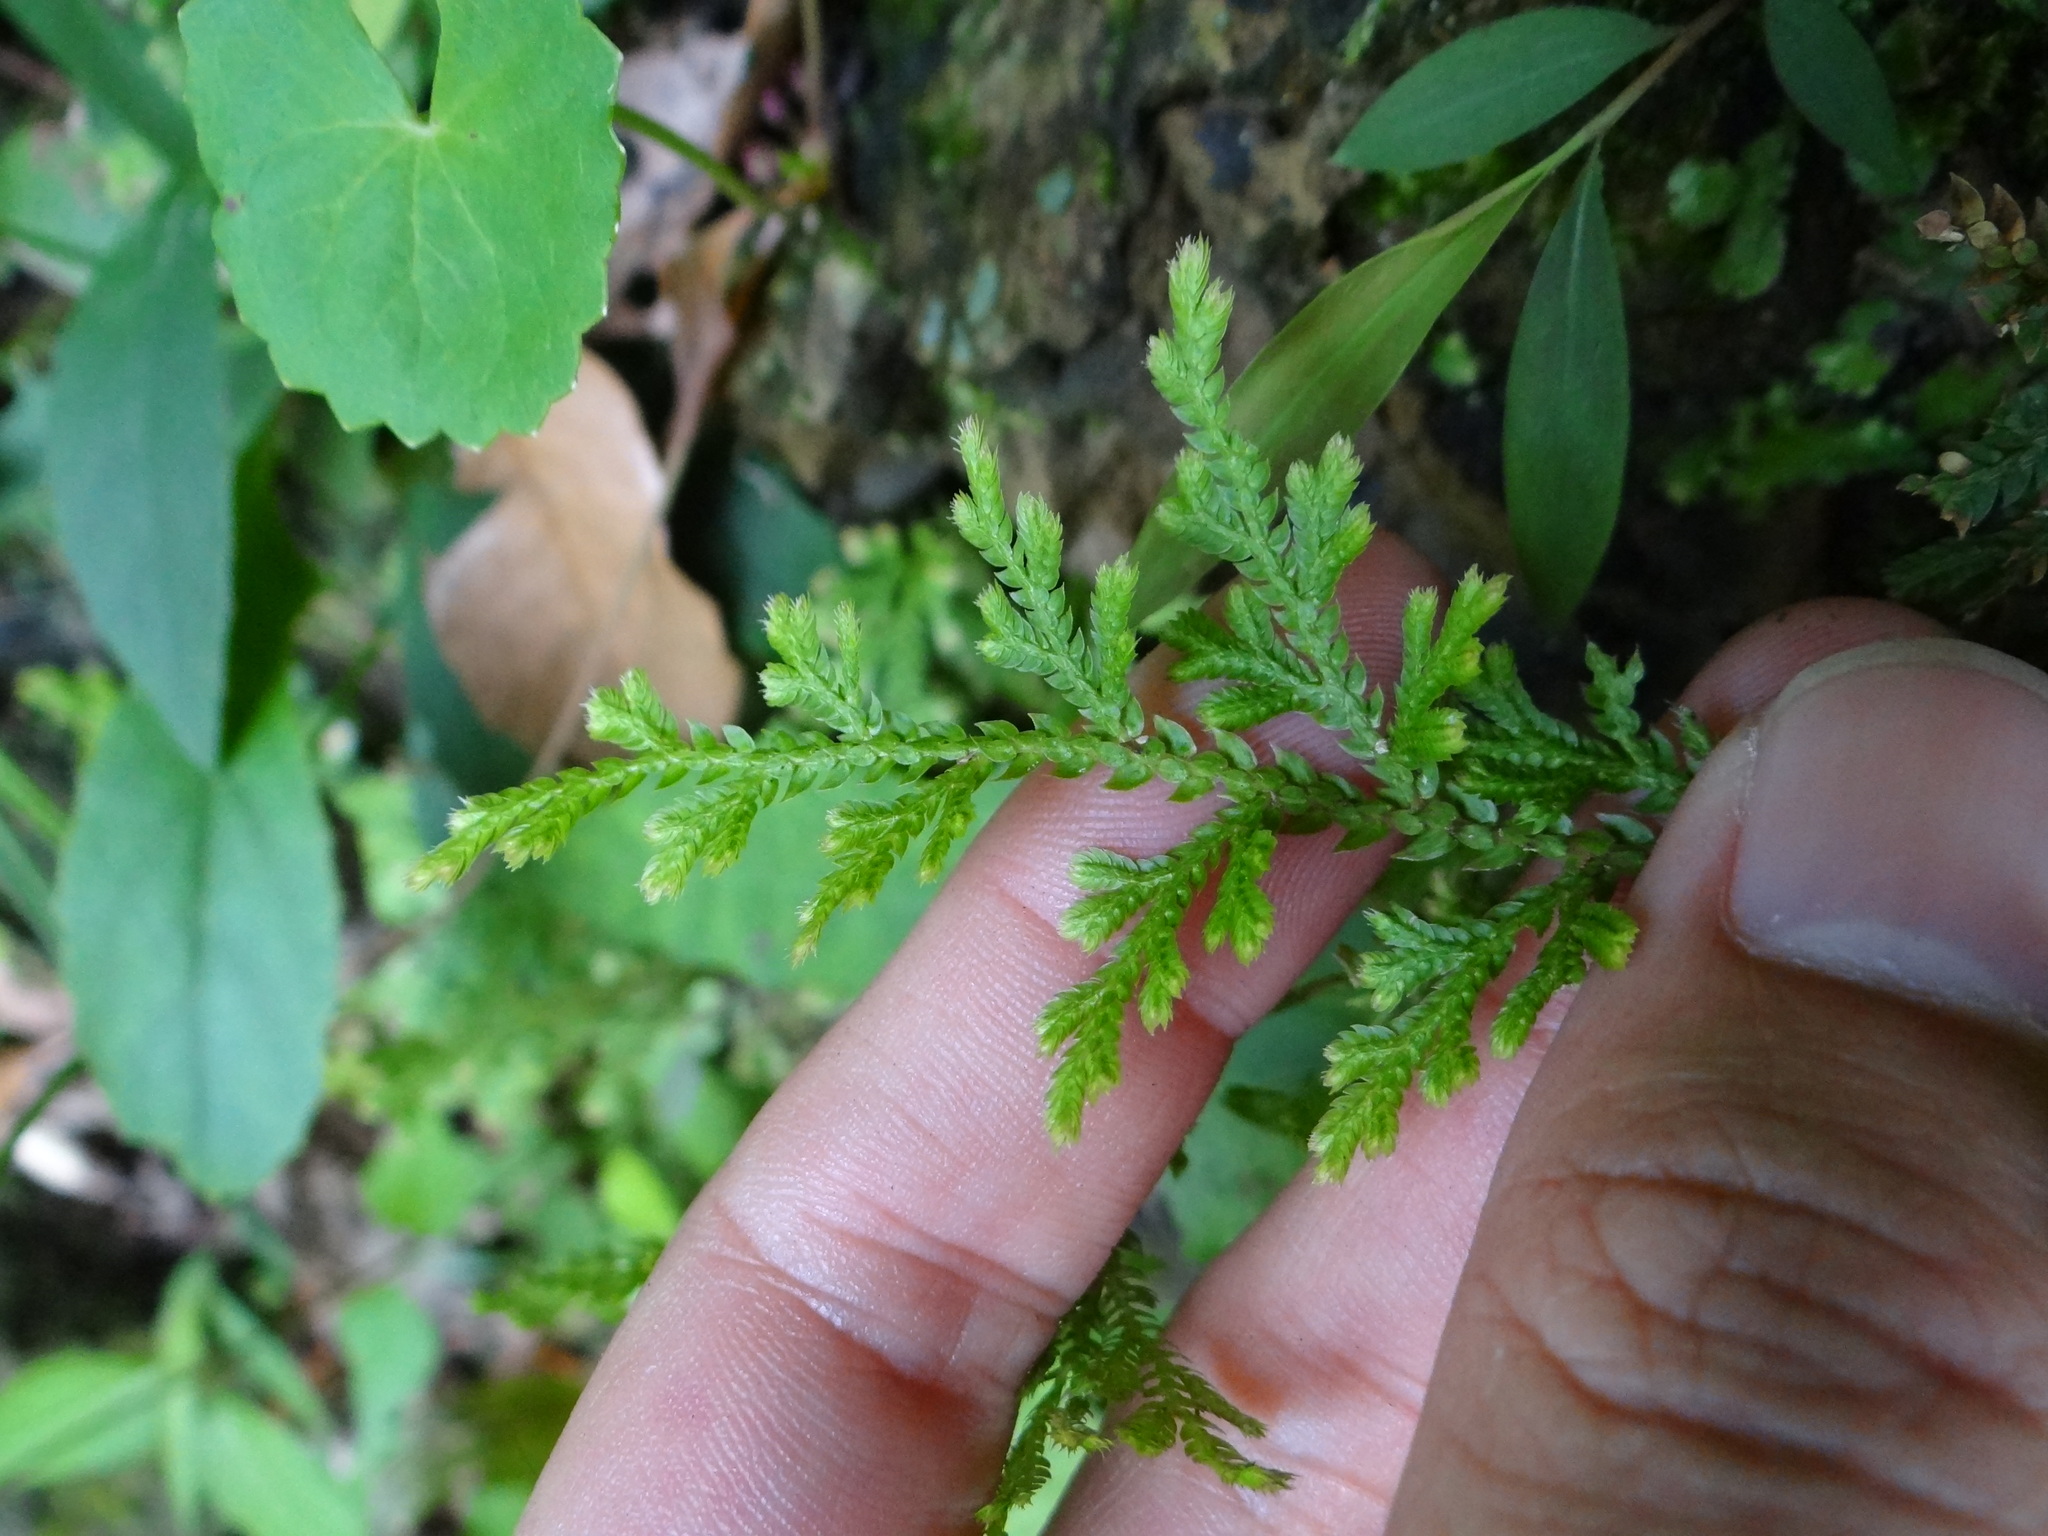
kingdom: Plantae
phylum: Tracheophyta
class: Lycopodiopsida
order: Selaginellales
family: Selaginellaceae
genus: Selaginella
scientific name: Selaginella moellendorffii
